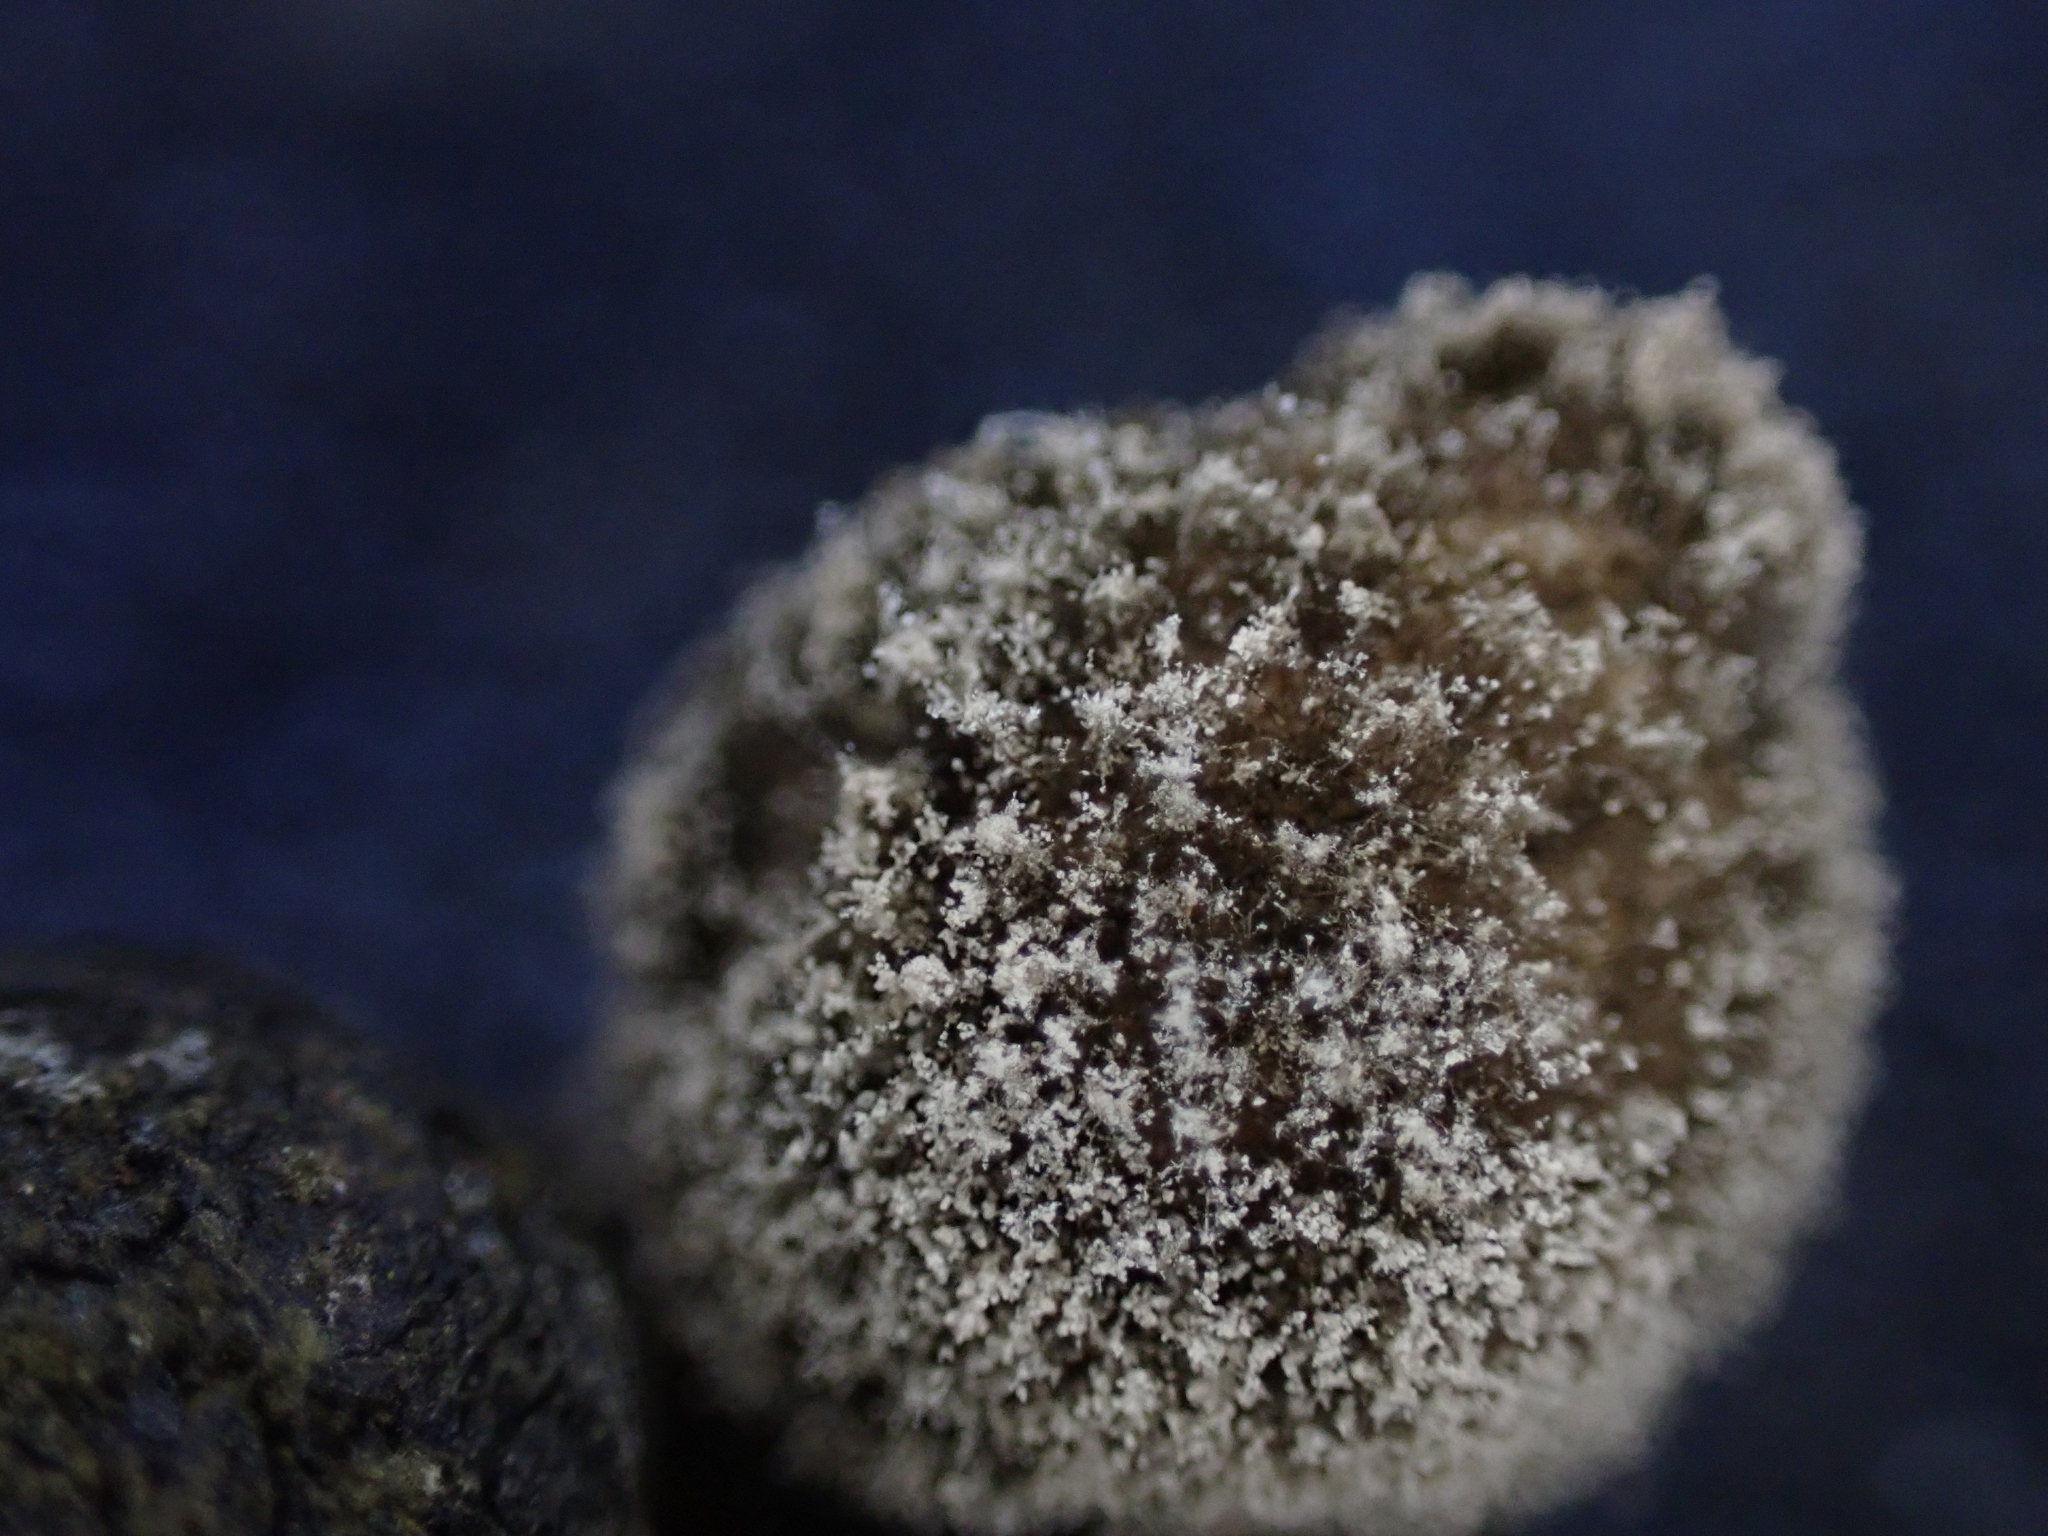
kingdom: Fungi
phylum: Ascomycota
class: Leotiomycetes
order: Helotiales
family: Sclerotiniaceae
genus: Botrytis
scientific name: Botrytis cinerea
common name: Grey mould
